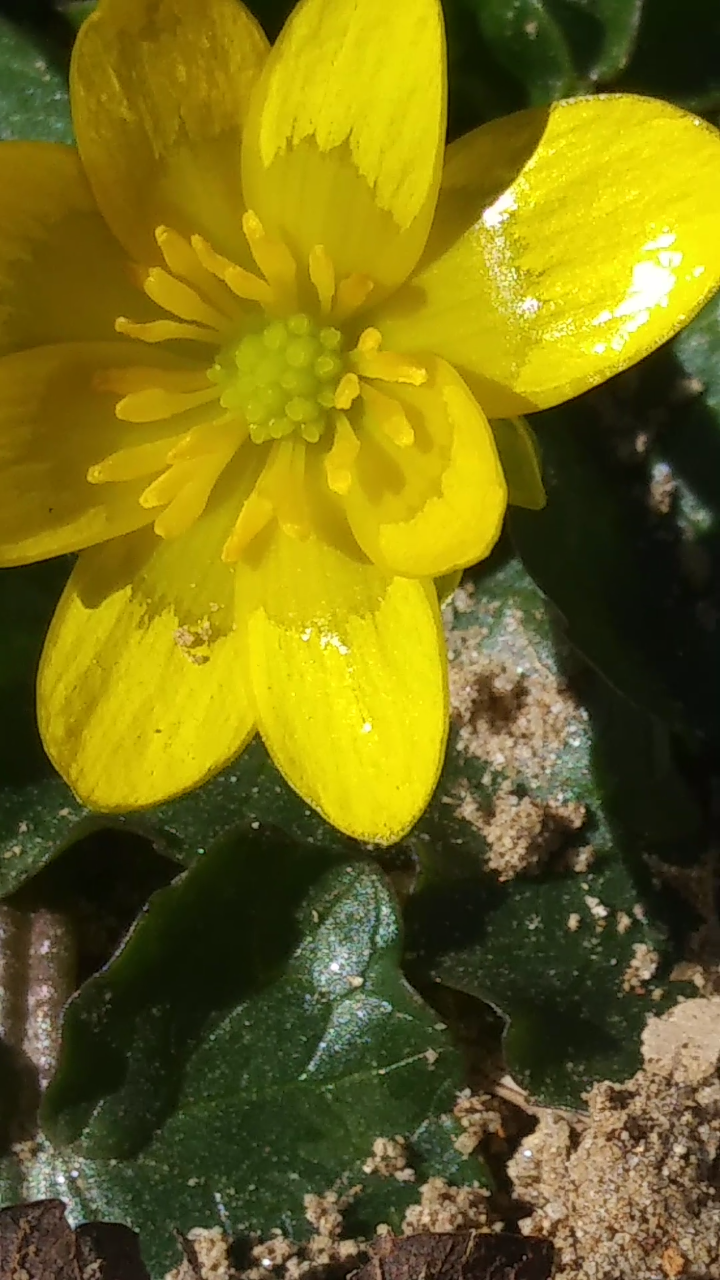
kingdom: Plantae
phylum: Tracheophyta
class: Magnoliopsida
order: Ranunculales
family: Ranunculaceae
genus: Ficaria
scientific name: Ficaria verna
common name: Lesser celandine
